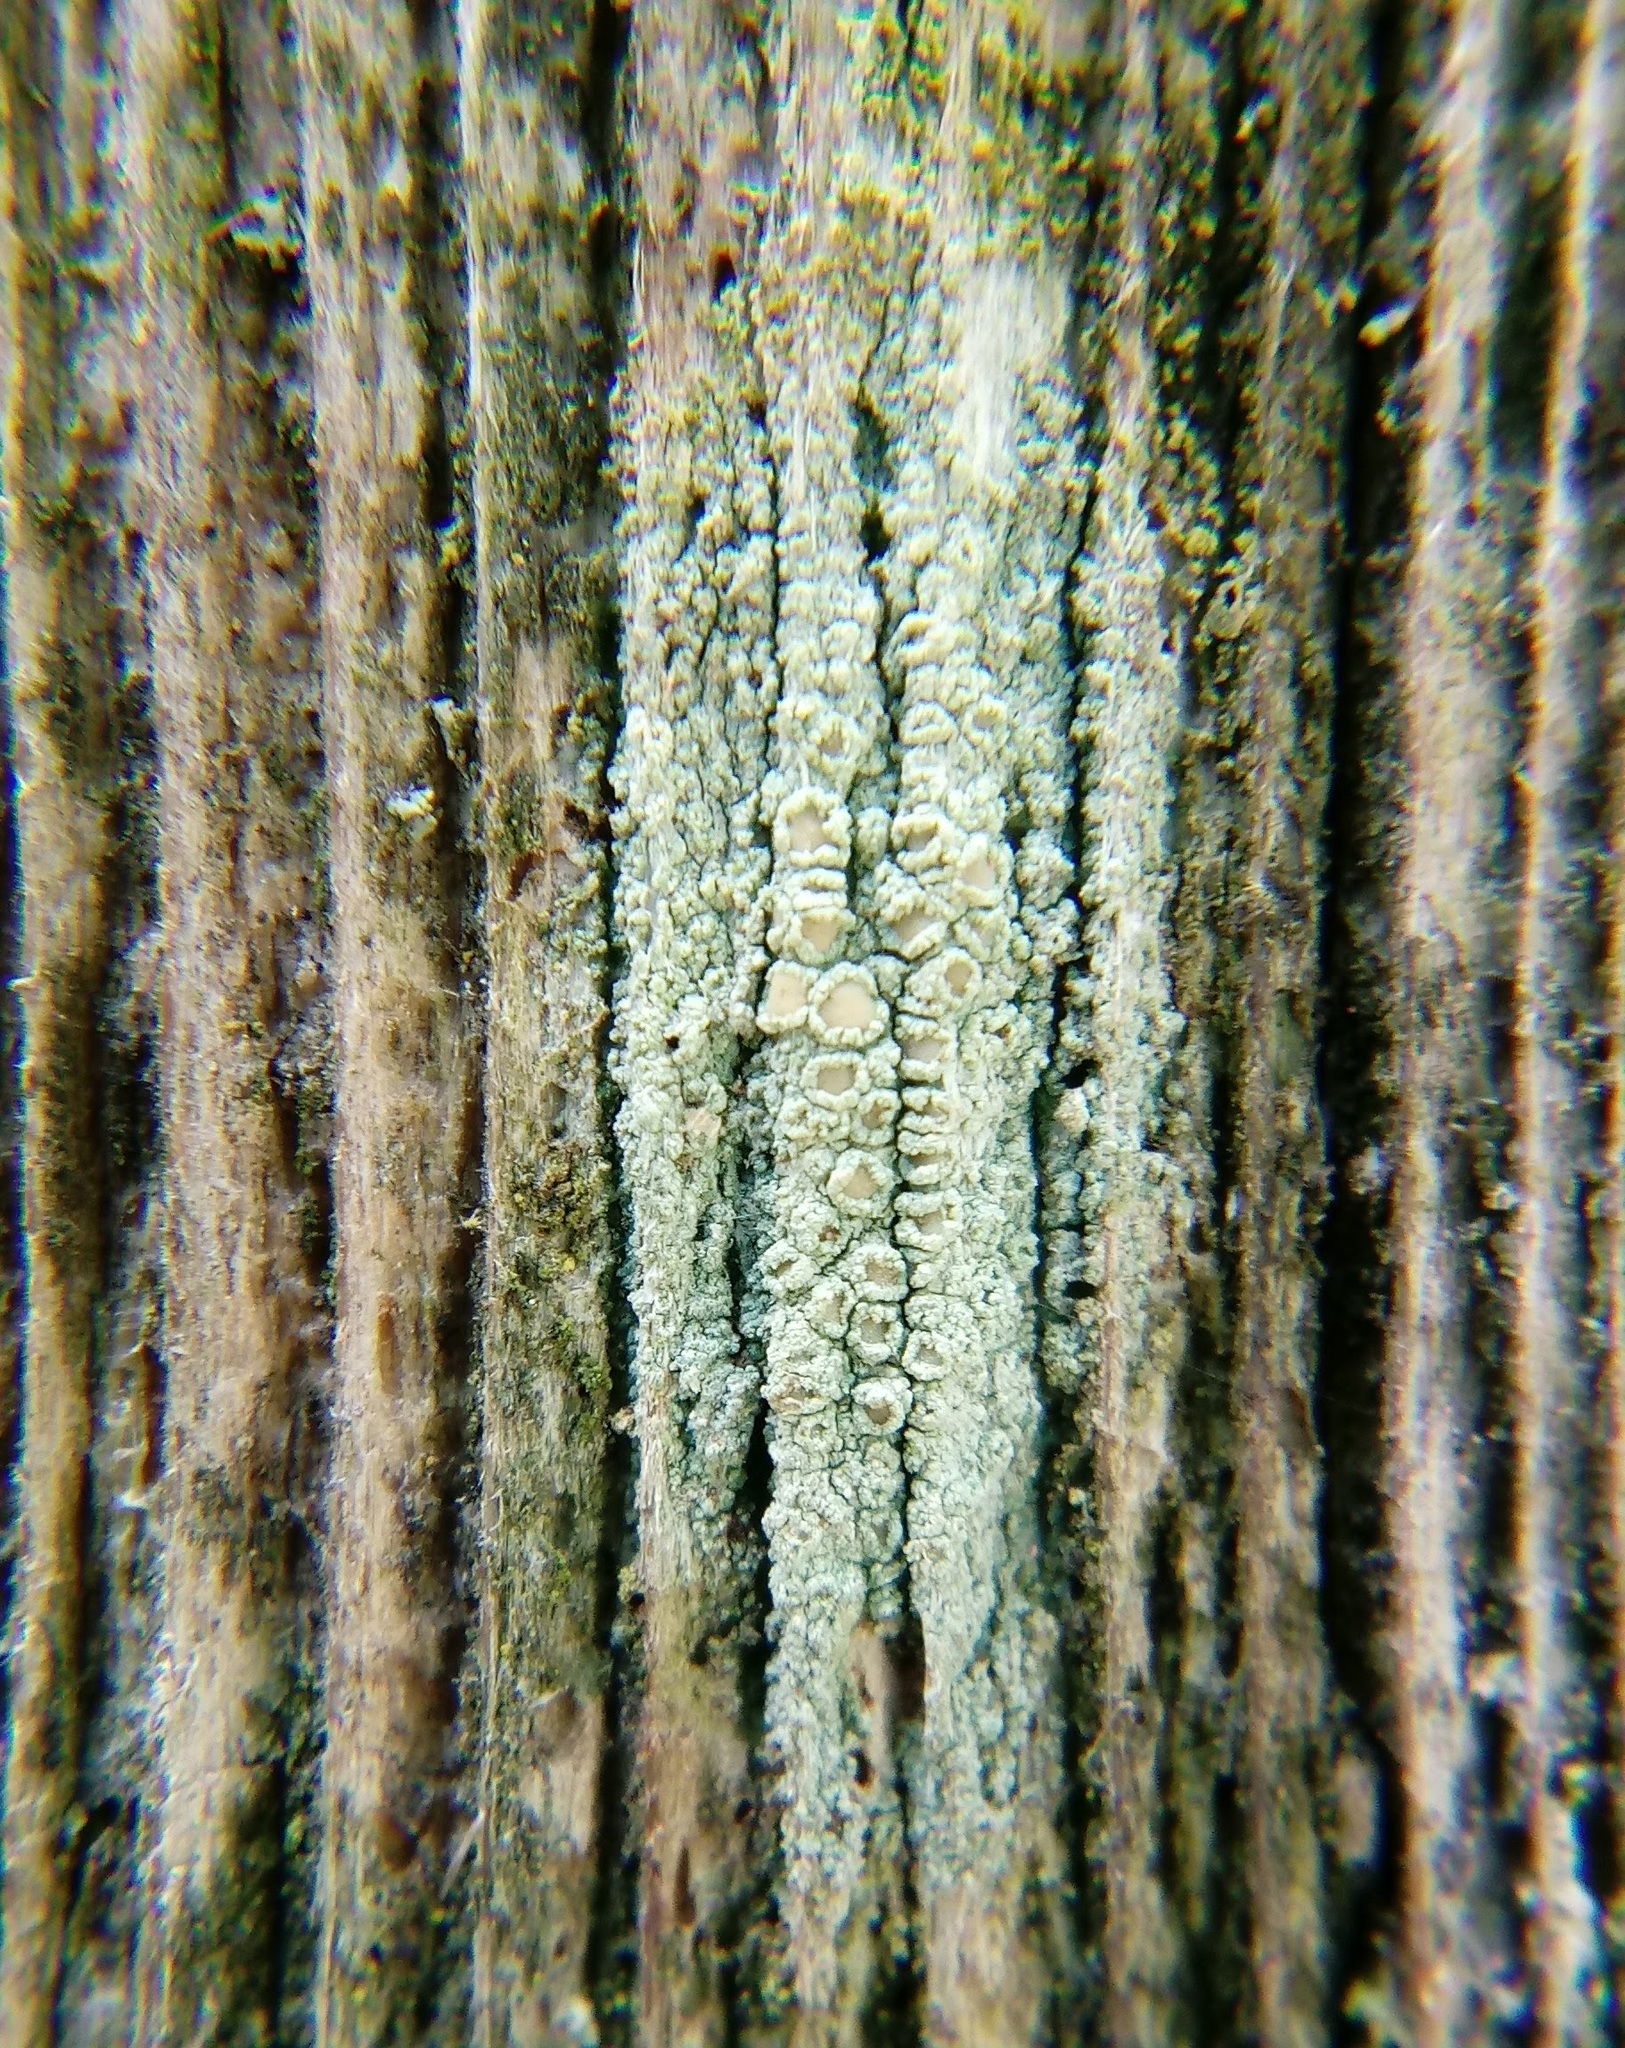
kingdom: Fungi
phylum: Ascomycota
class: Lecanoromycetes
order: Lecanorales
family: Lecanoraceae
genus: Lecanora
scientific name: Lecanora strobilina
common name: Mealy rim-lichen
